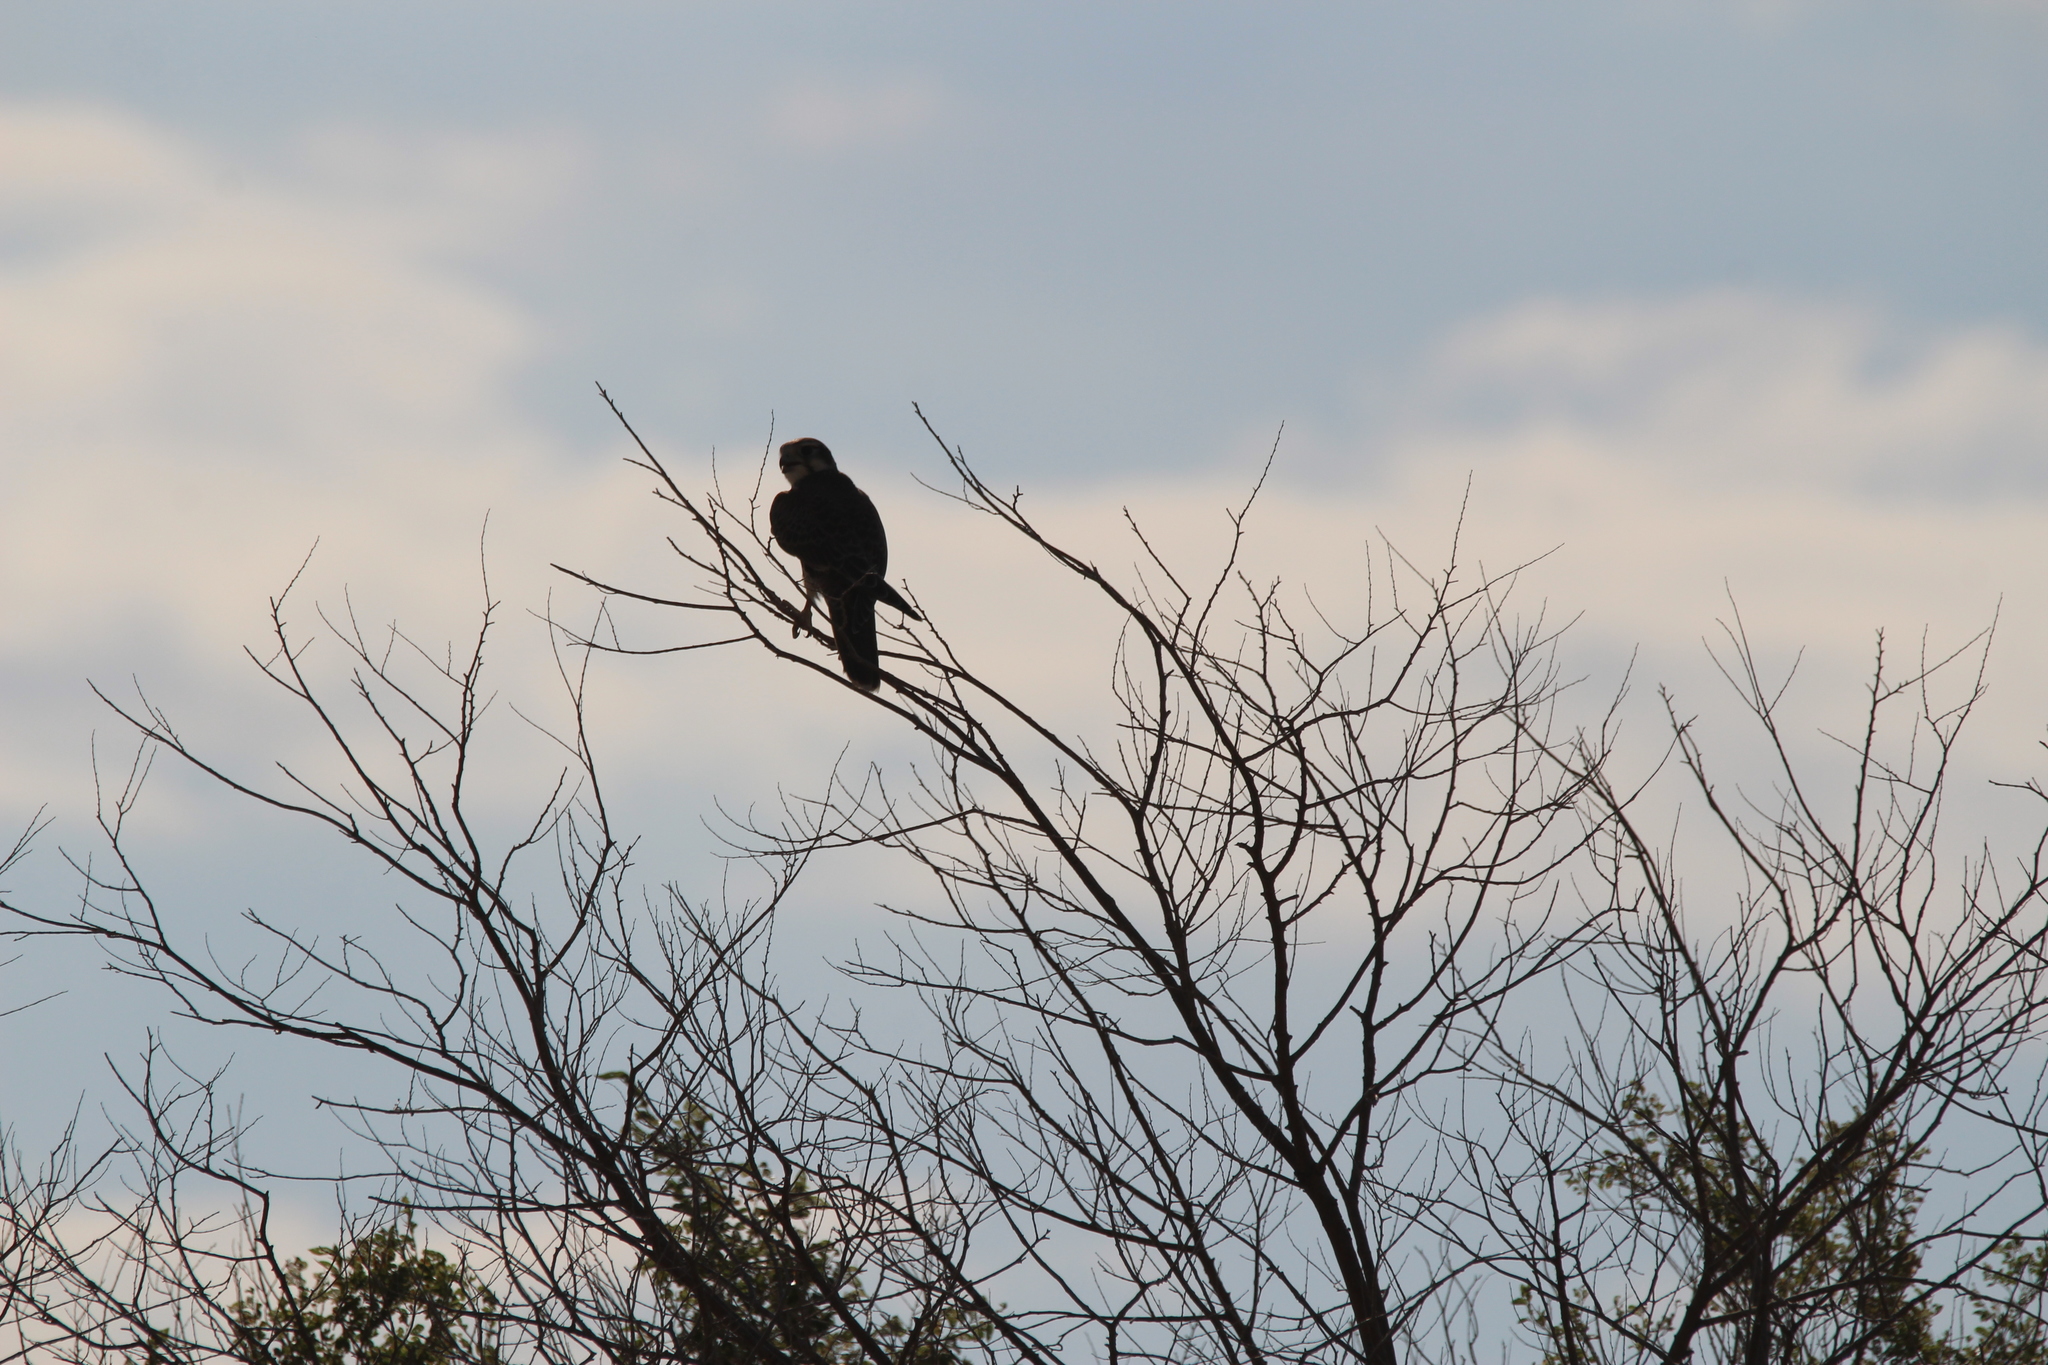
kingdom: Animalia
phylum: Chordata
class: Aves
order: Falconiformes
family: Falconidae
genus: Falco
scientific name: Falco mexicanus
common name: Prairie falcon
